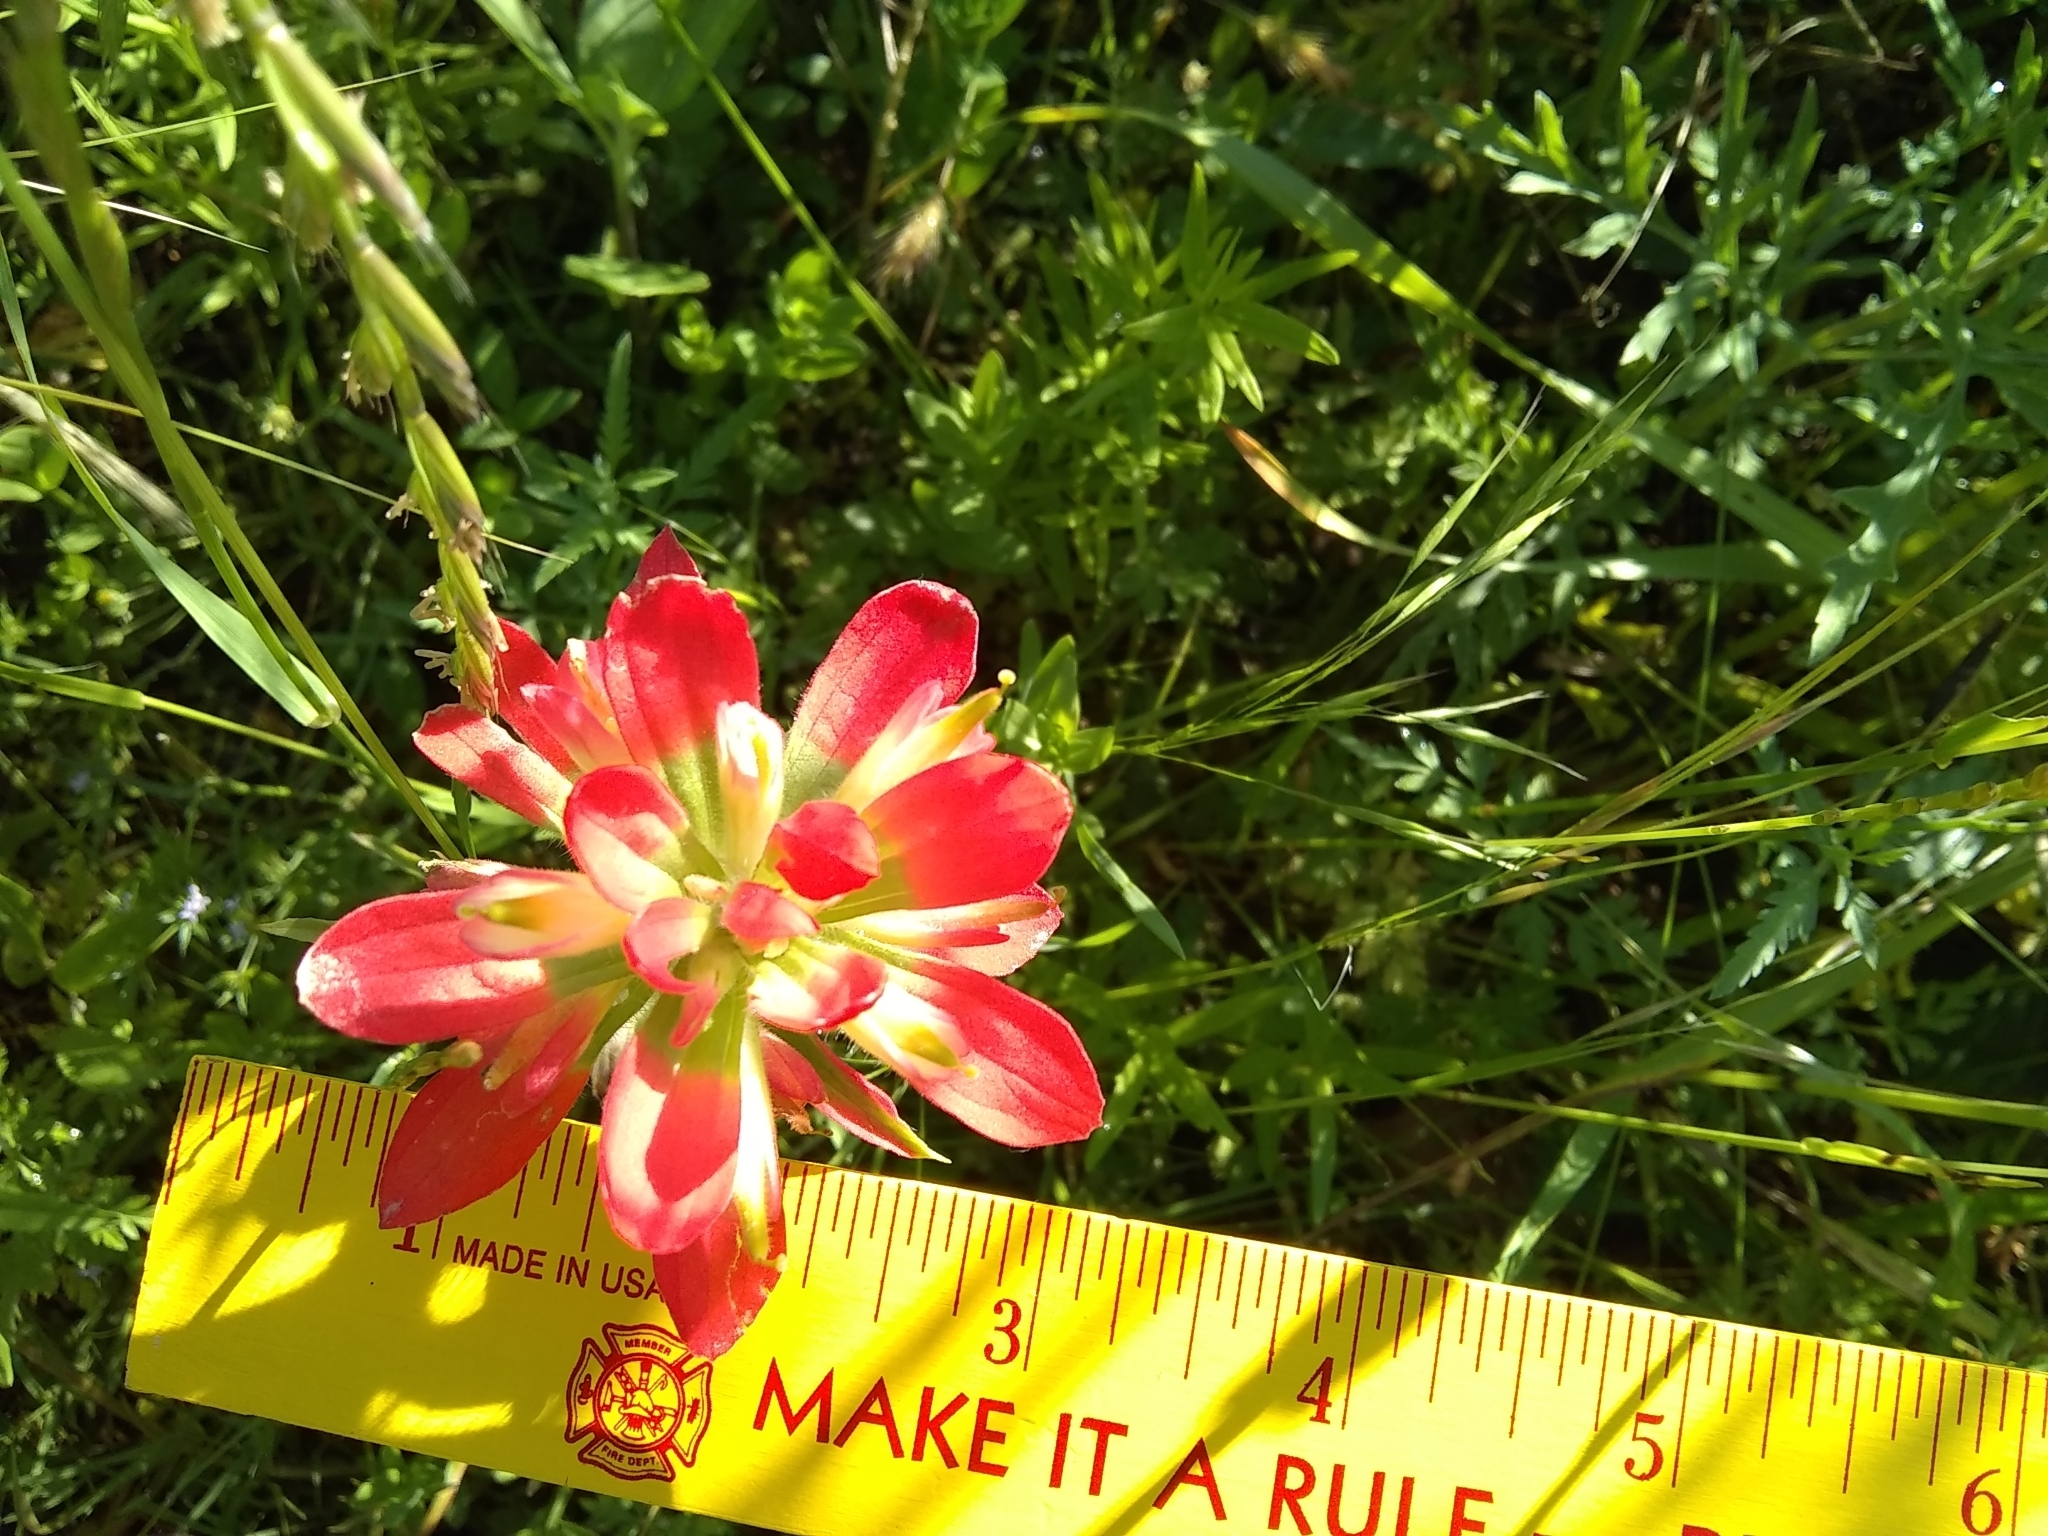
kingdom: Plantae
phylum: Tracheophyta
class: Magnoliopsida
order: Lamiales
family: Orobanchaceae
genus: Castilleja
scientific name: Castilleja indivisa
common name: Texas paintbrush
